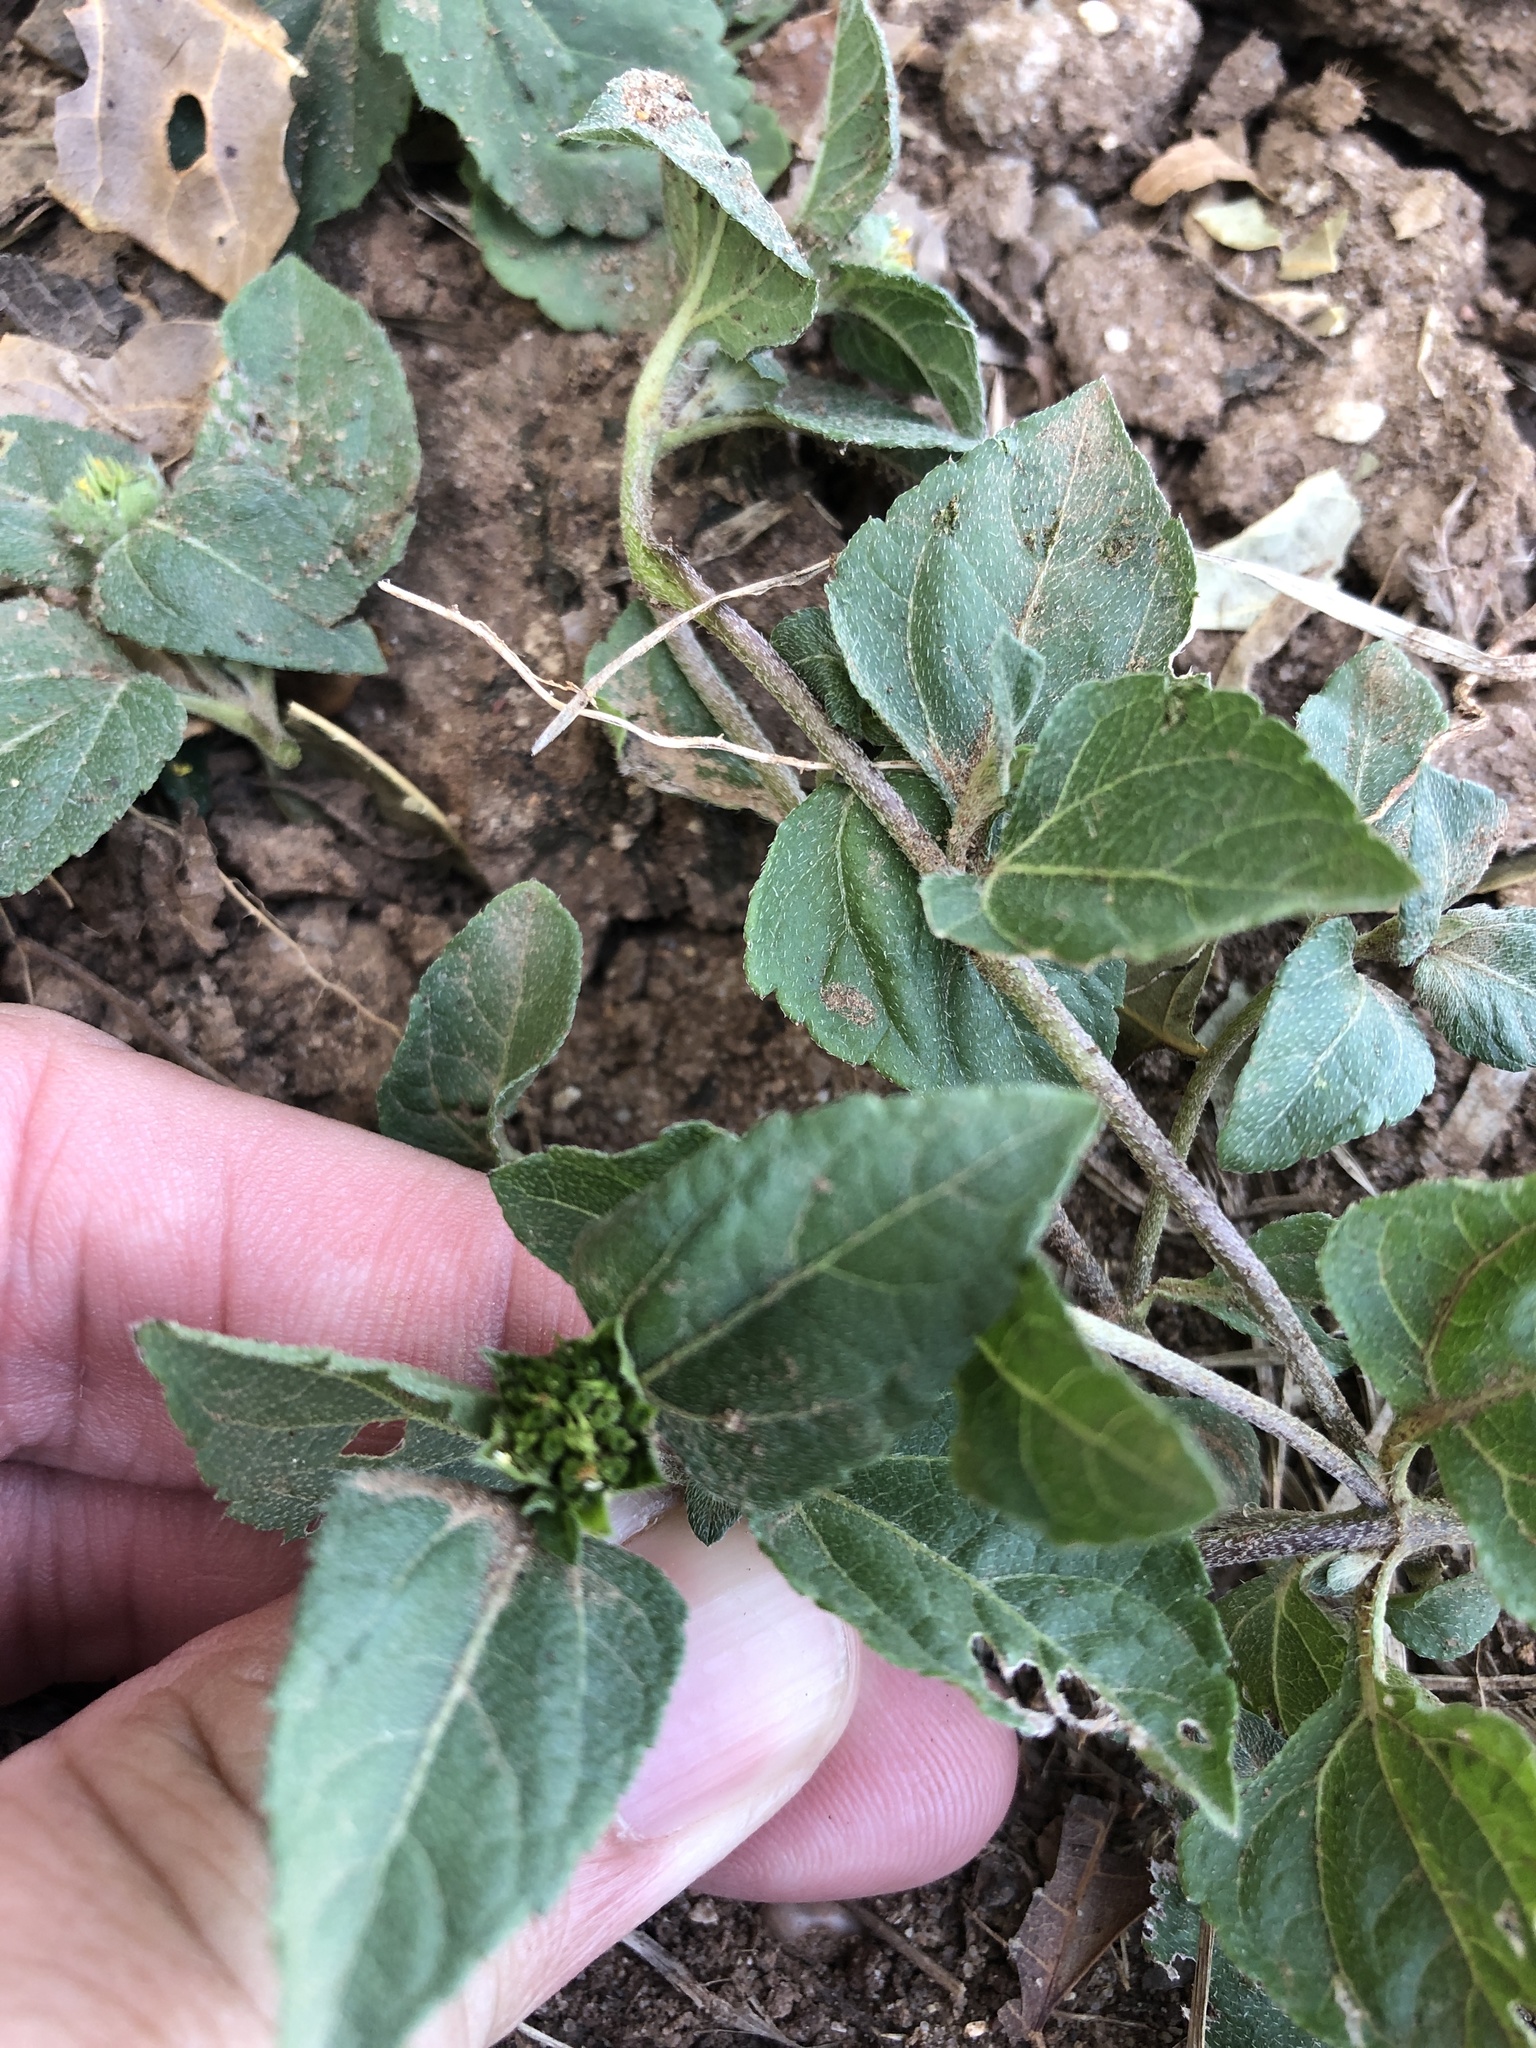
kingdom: Plantae
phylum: Tracheophyta
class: Magnoliopsida
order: Asterales
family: Asteraceae
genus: Calyptocarpus
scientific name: Calyptocarpus vialis
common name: Straggler daisy
